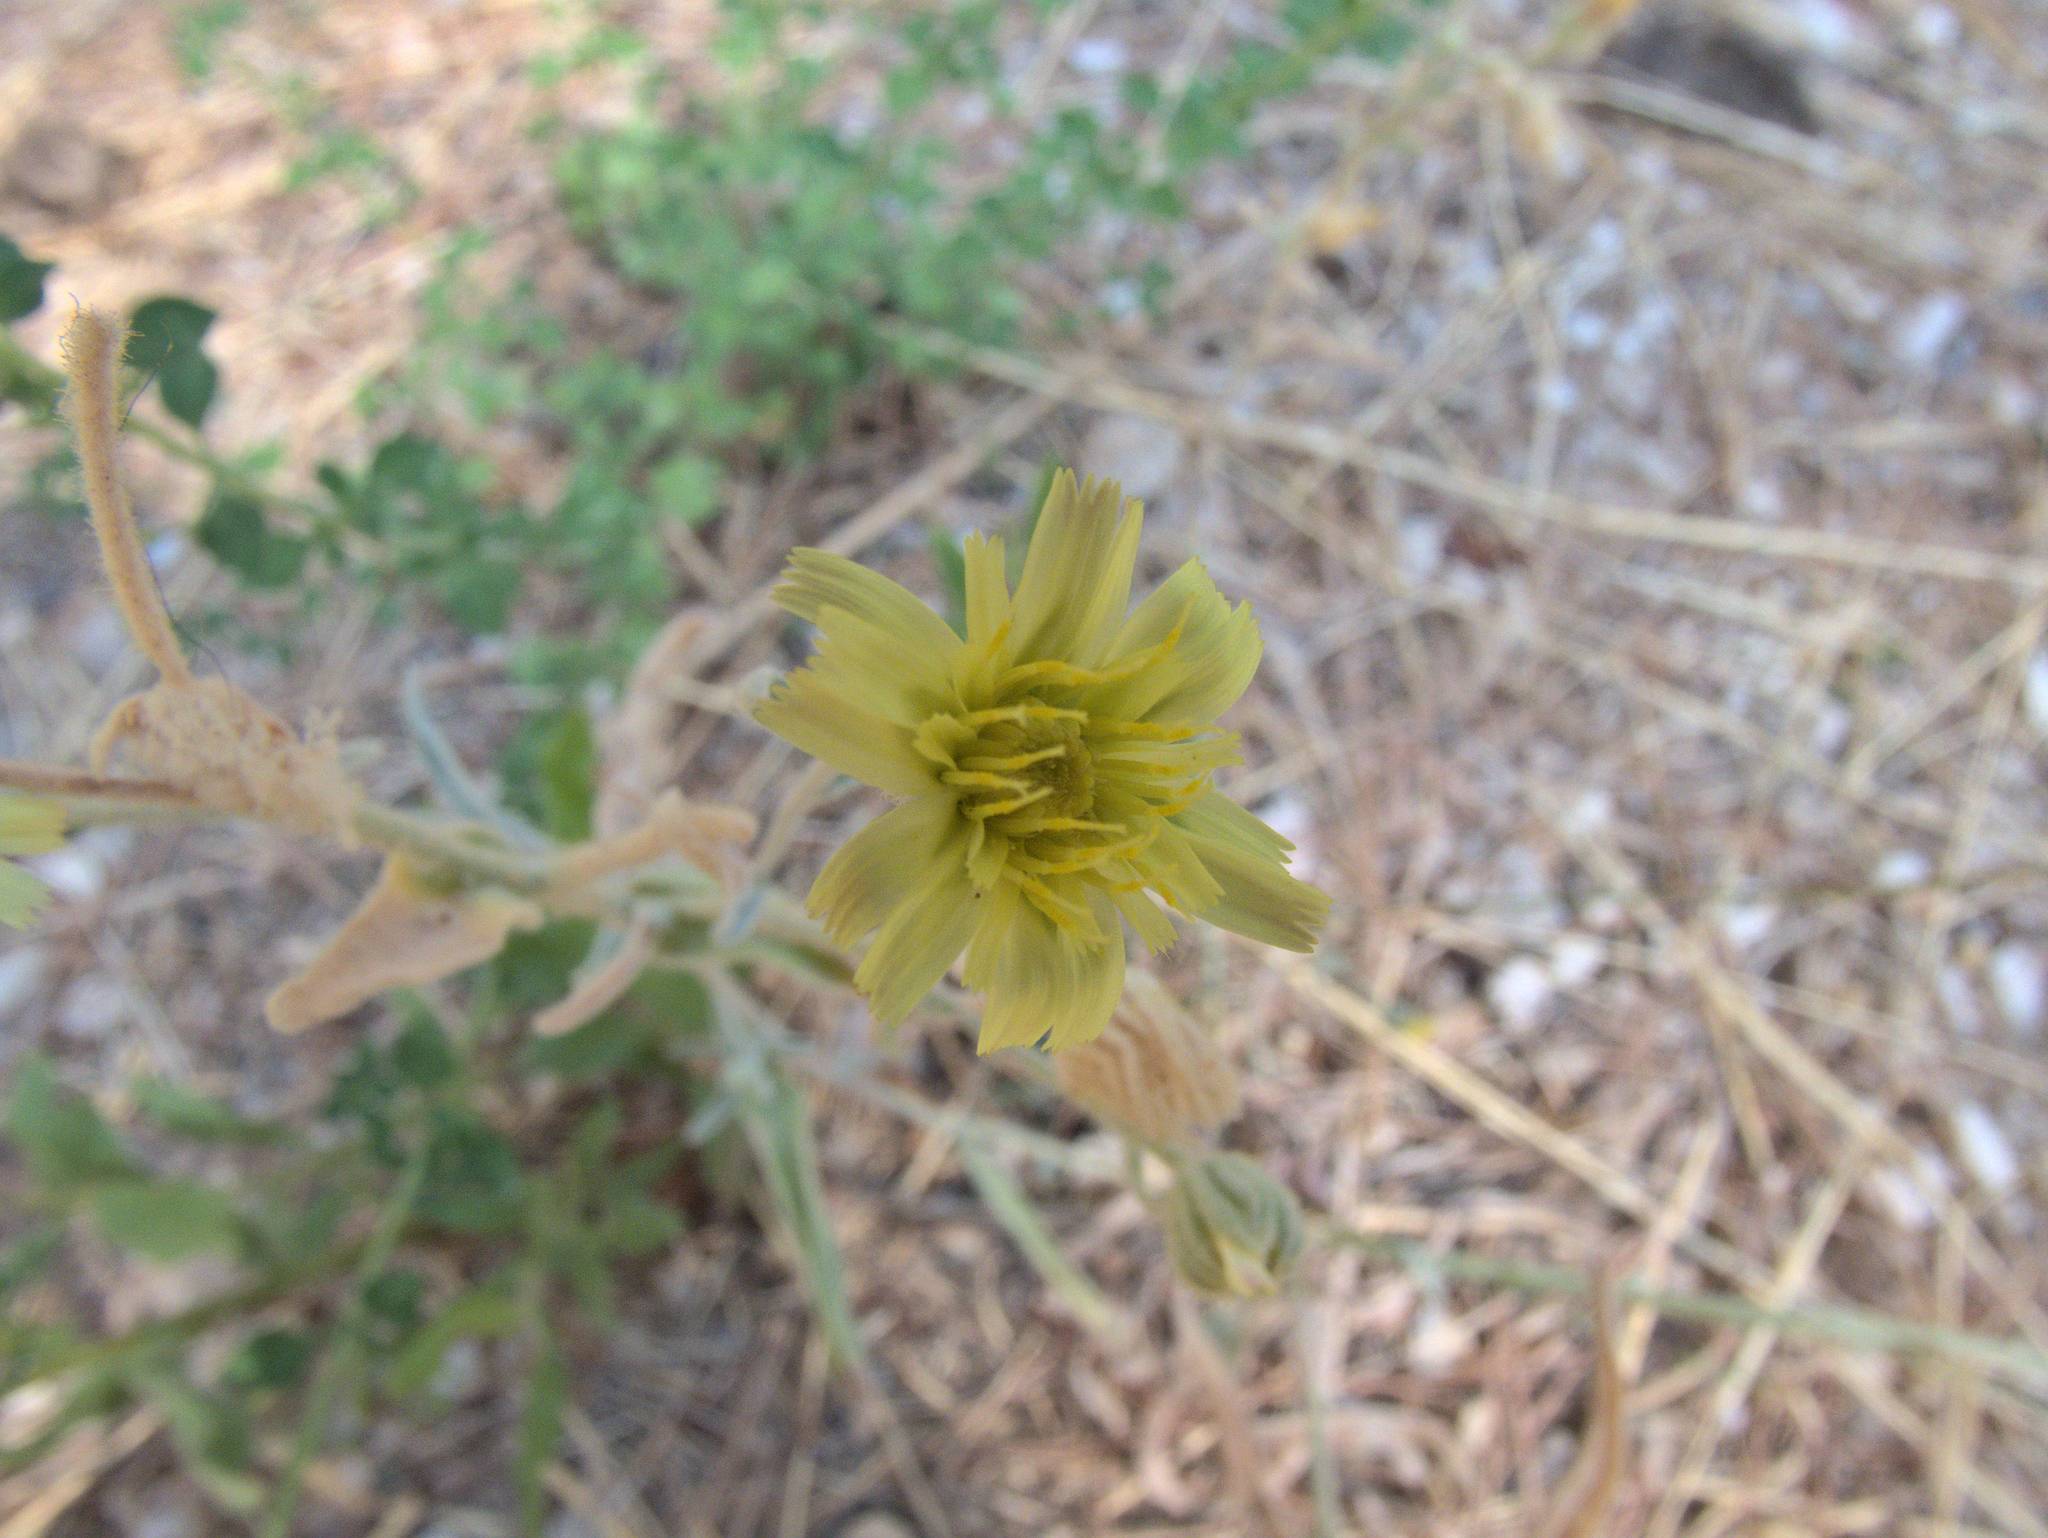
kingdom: Plantae
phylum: Tracheophyta
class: Magnoliopsida
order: Asterales
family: Asteraceae
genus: Andryala
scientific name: Andryala integrifolia
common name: Common andryala
